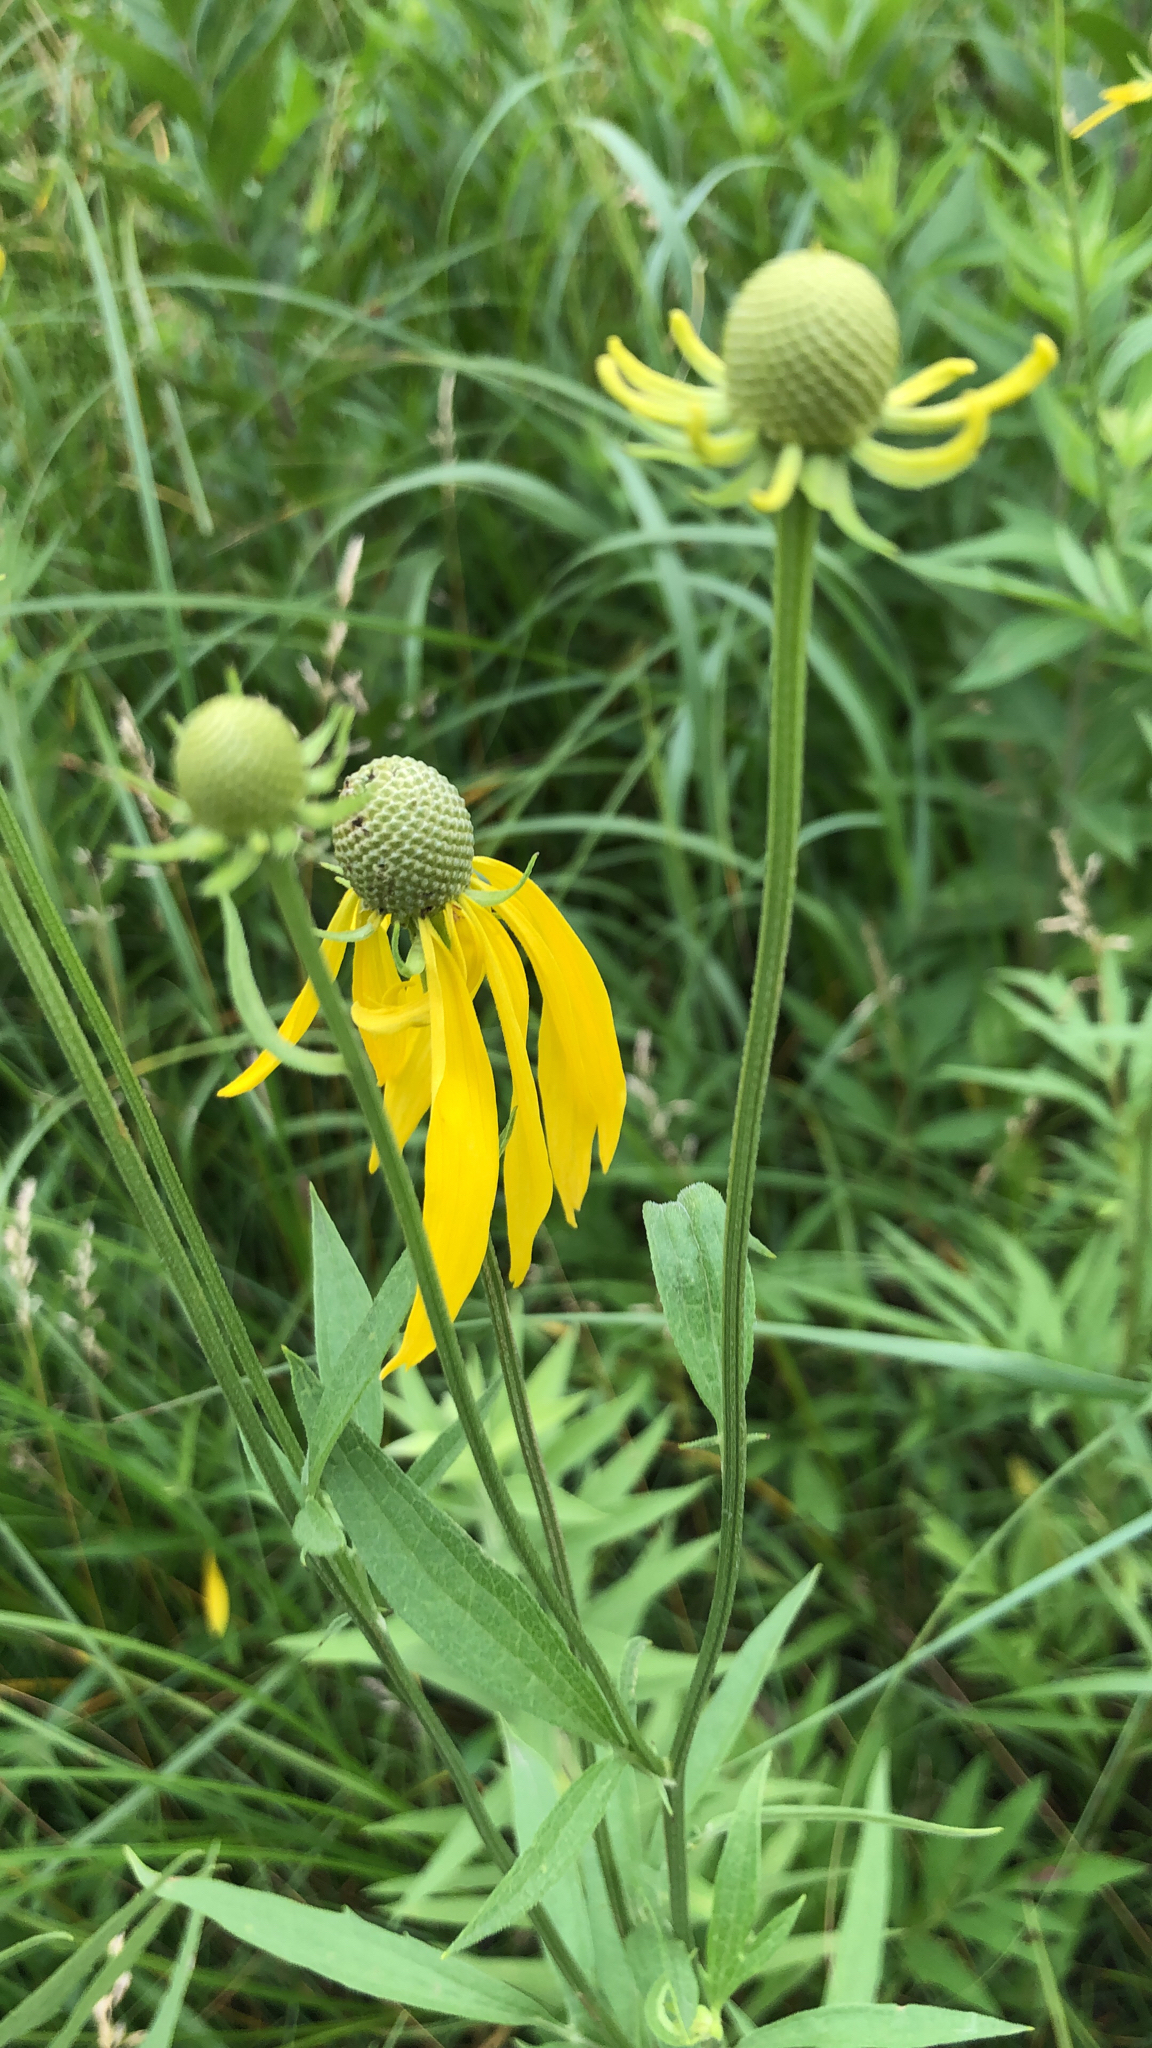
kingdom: Plantae
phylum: Tracheophyta
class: Magnoliopsida
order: Asterales
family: Asteraceae
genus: Ratibida
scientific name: Ratibida pinnata
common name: Drooping prairie-coneflower
